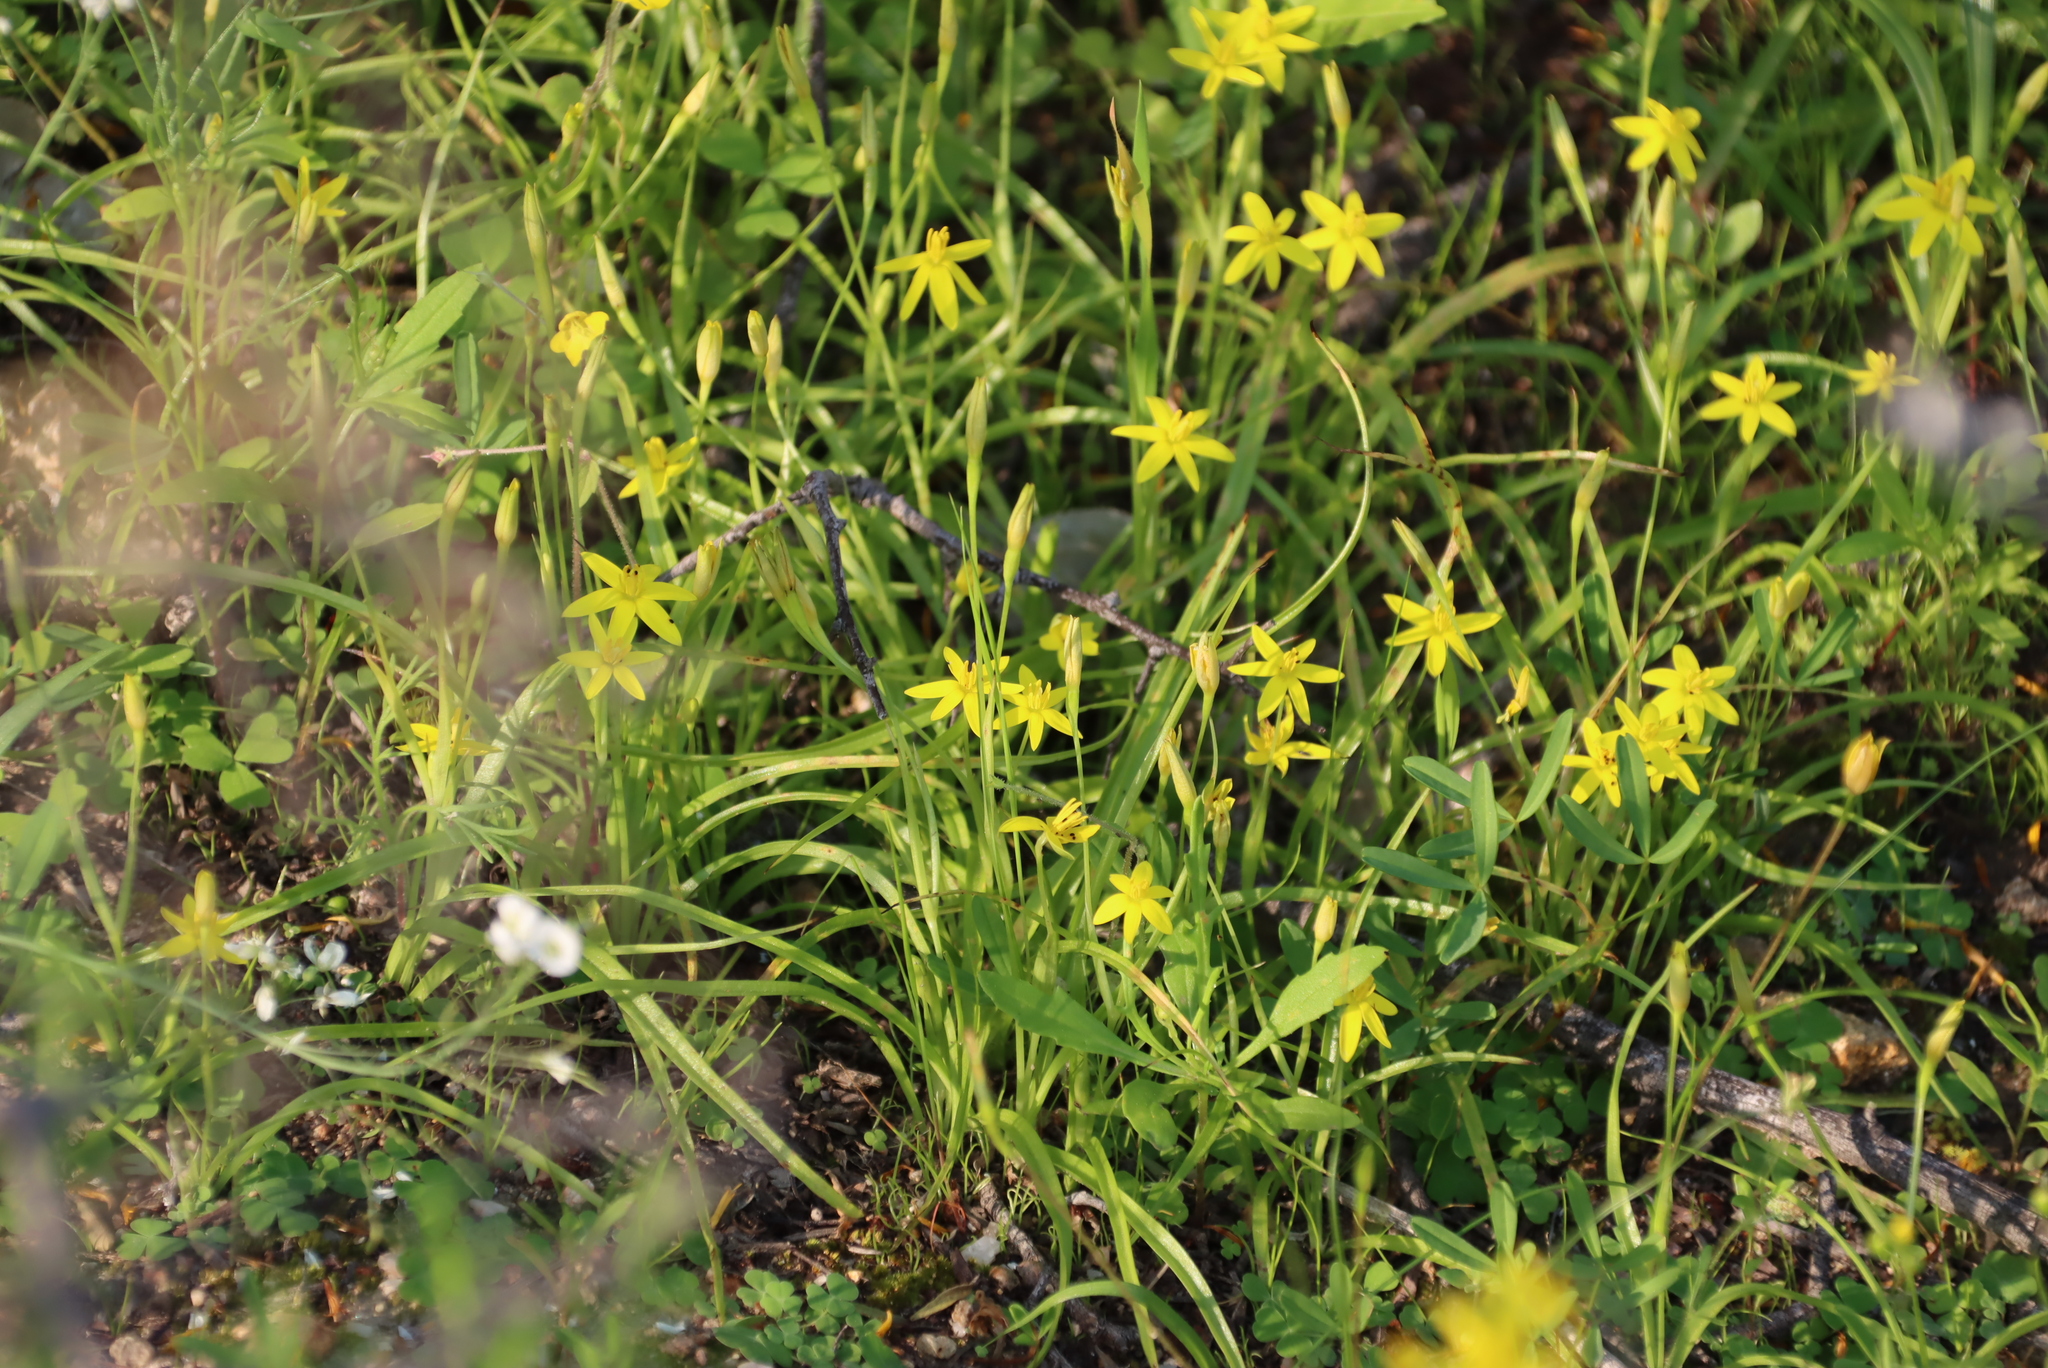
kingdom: Plantae
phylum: Tracheophyta
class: Liliopsida
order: Asparagales
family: Hypoxidaceae
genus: Pauridia
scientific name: Pauridia scullyi
